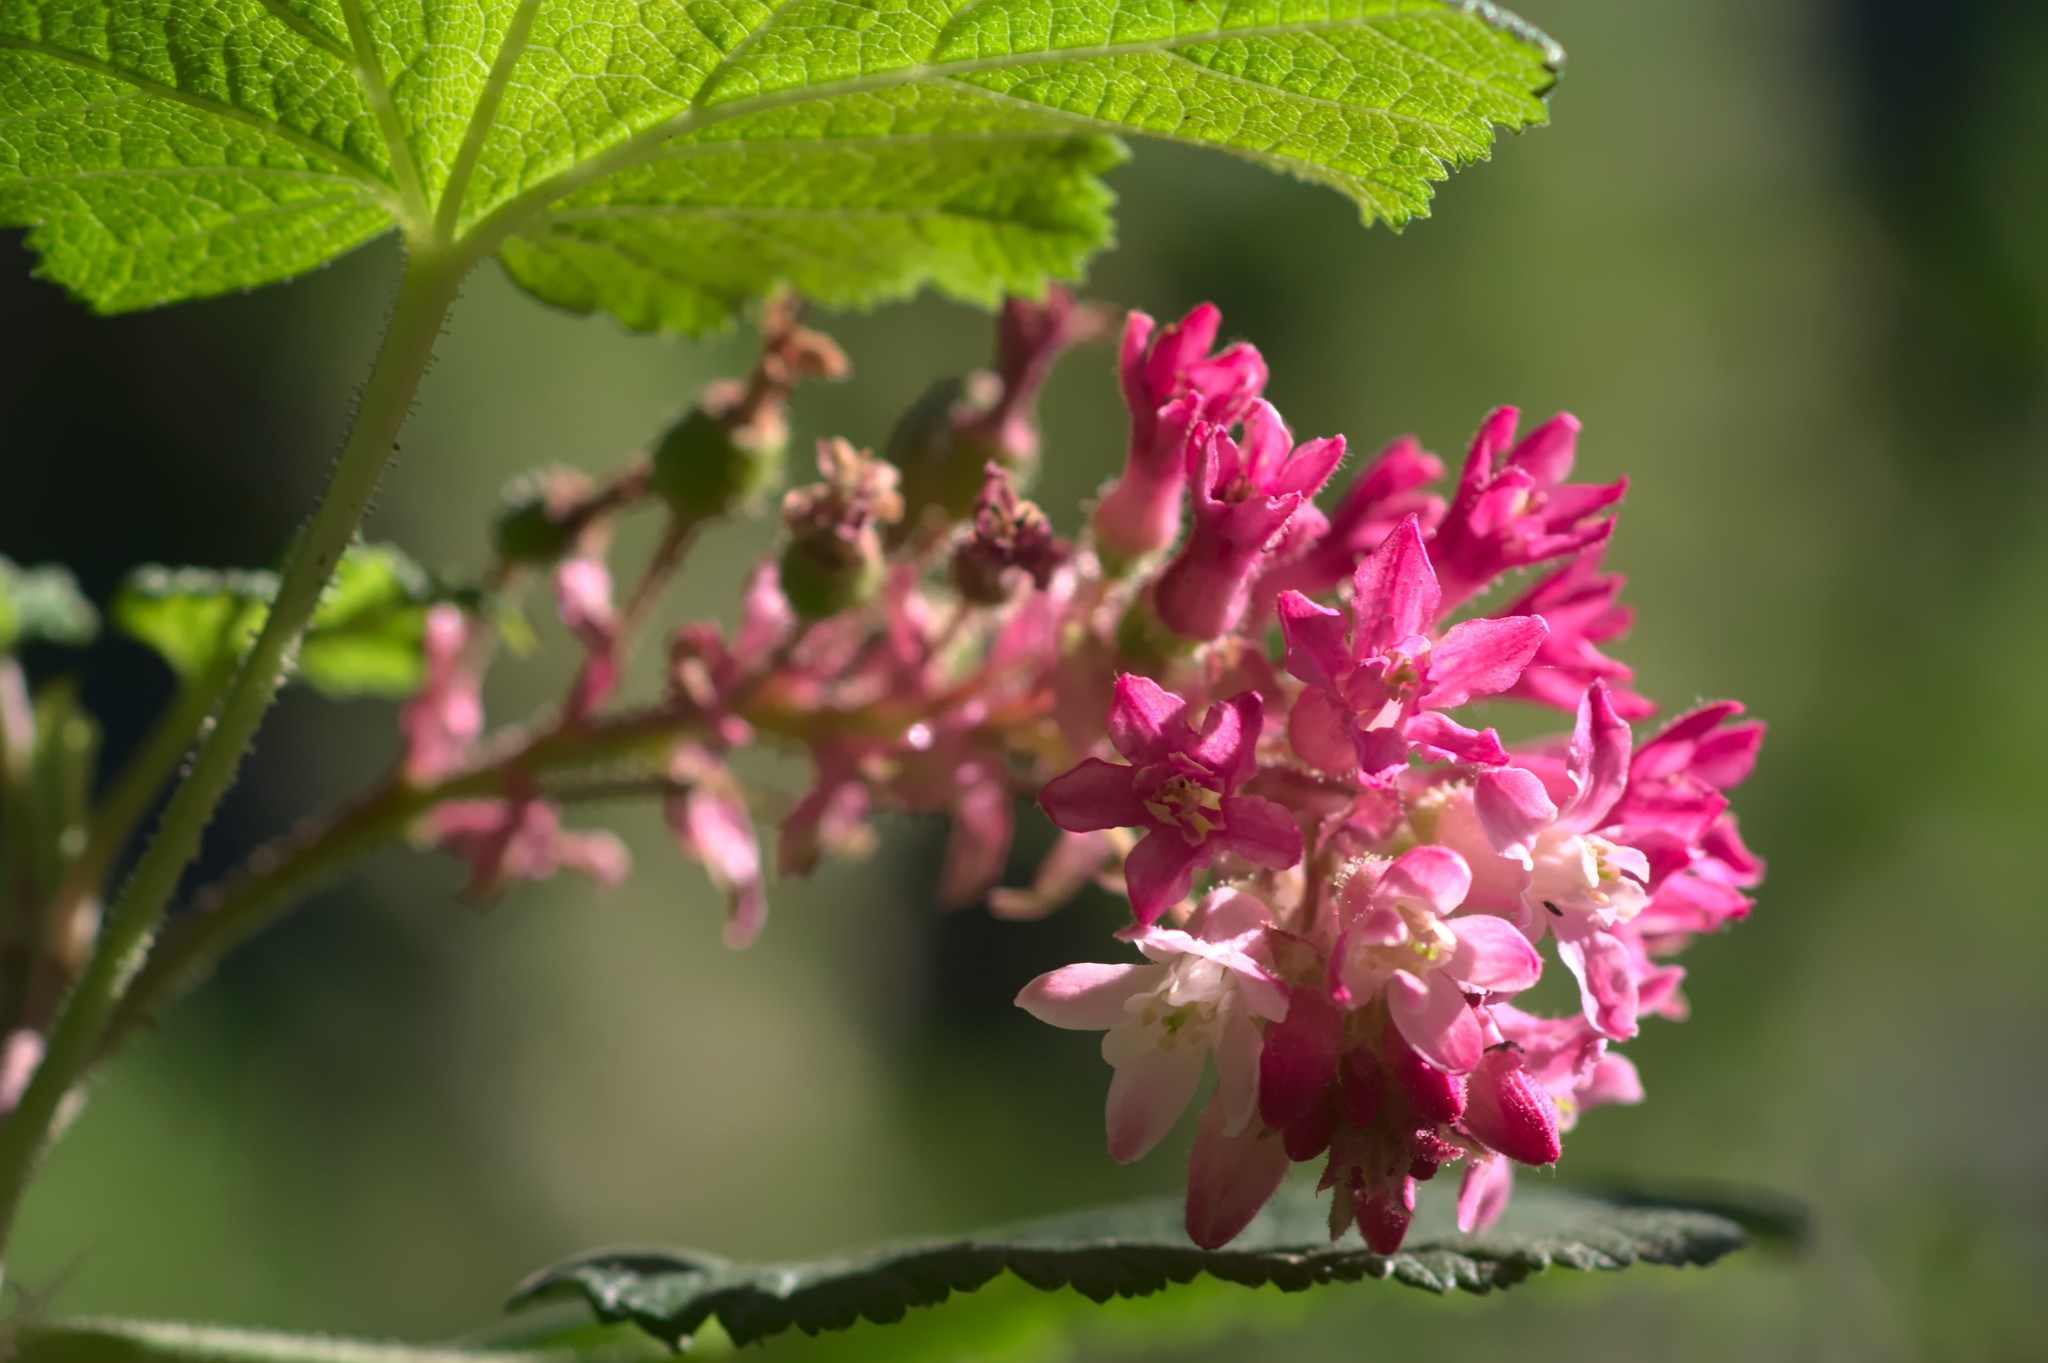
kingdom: Plantae
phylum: Tracheophyta
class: Magnoliopsida
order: Saxifragales
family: Grossulariaceae
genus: Ribes
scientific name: Ribes sanguineum
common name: Flowering currant
